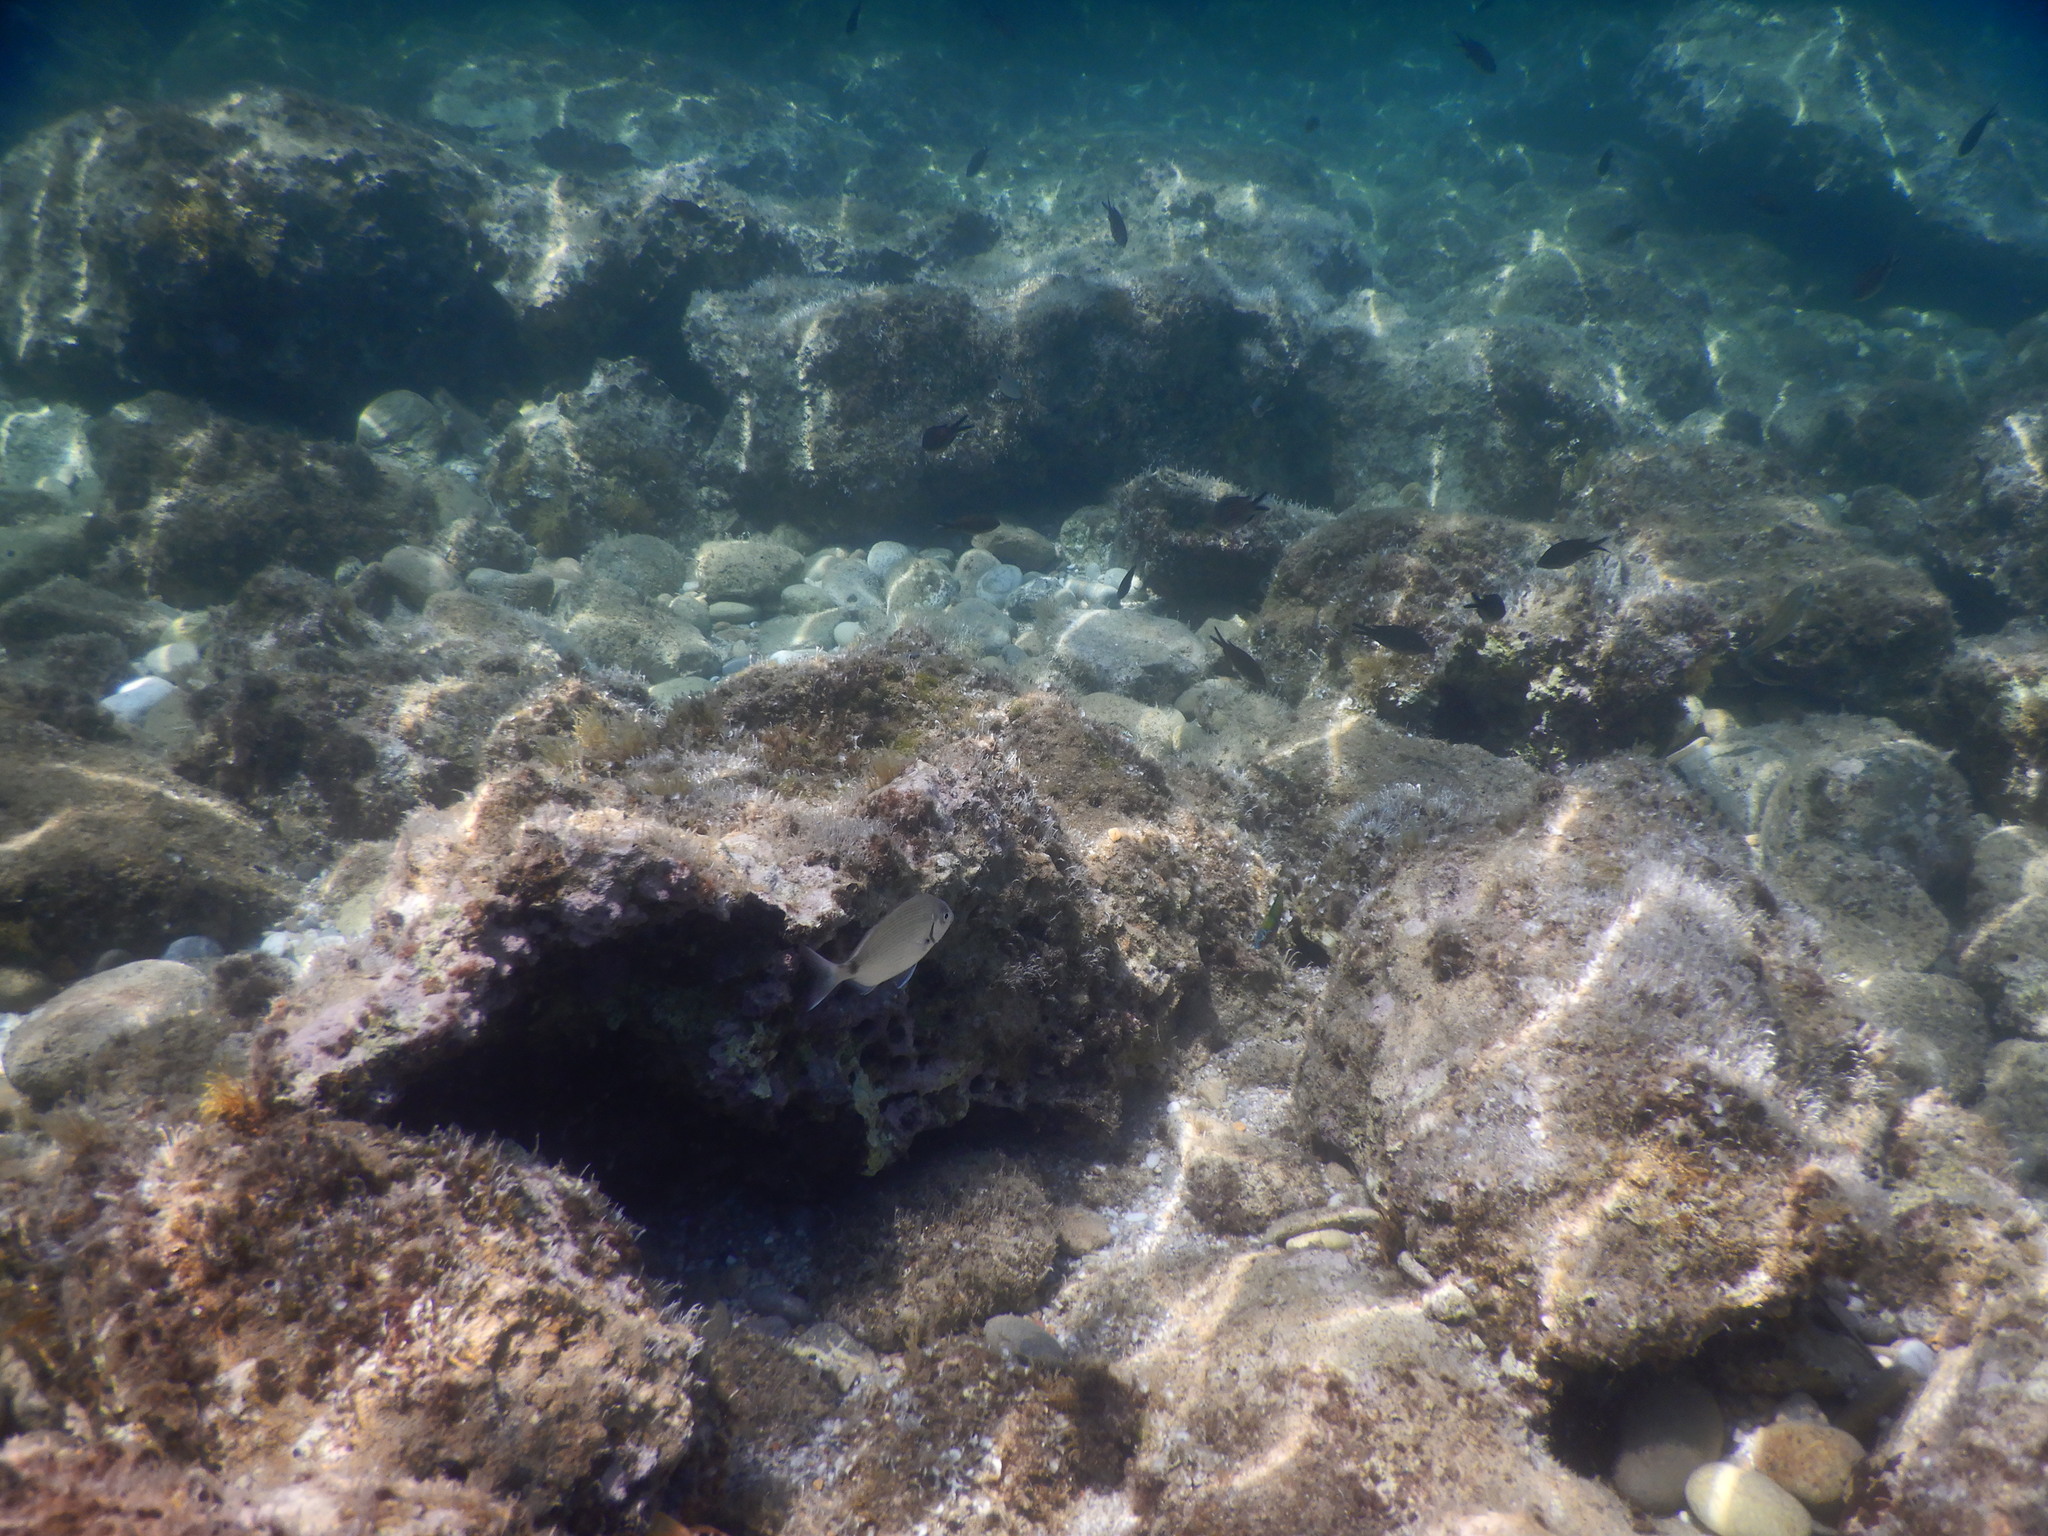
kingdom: Animalia
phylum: Chordata
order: Perciformes
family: Sparidae
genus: Diplodus
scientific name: Diplodus sargus
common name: White seabream
